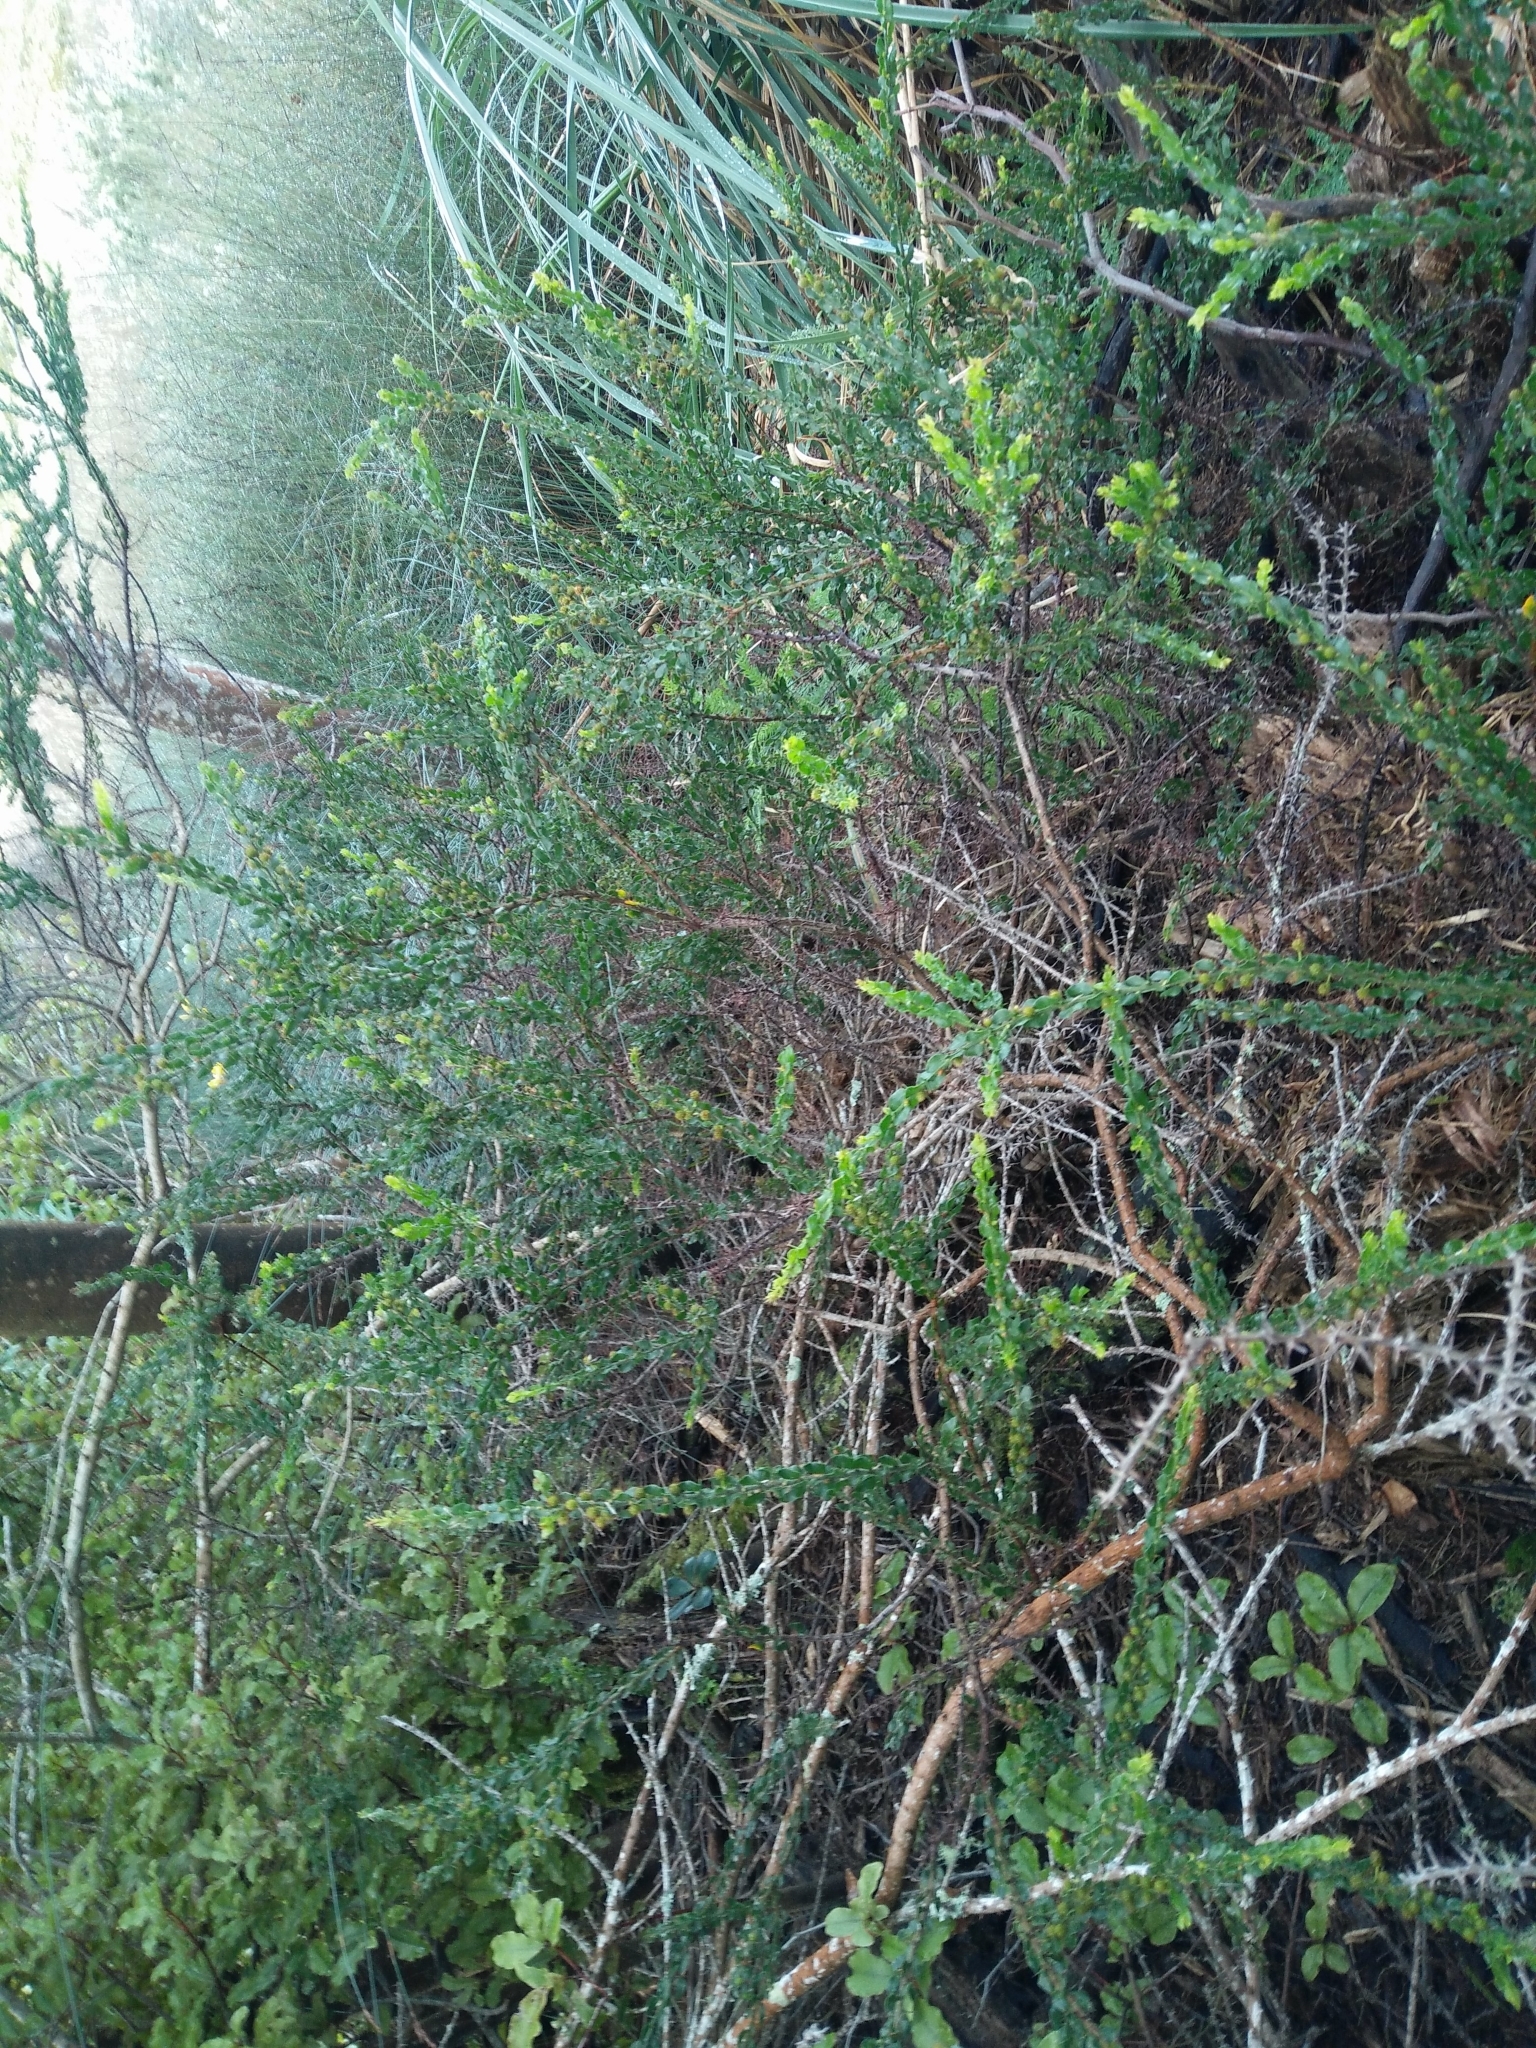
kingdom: Plantae
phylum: Tracheophyta
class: Magnoliopsida
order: Fabales
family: Fabaceae
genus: Acacia
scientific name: Acacia paradoxa
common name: Paradox acacia
